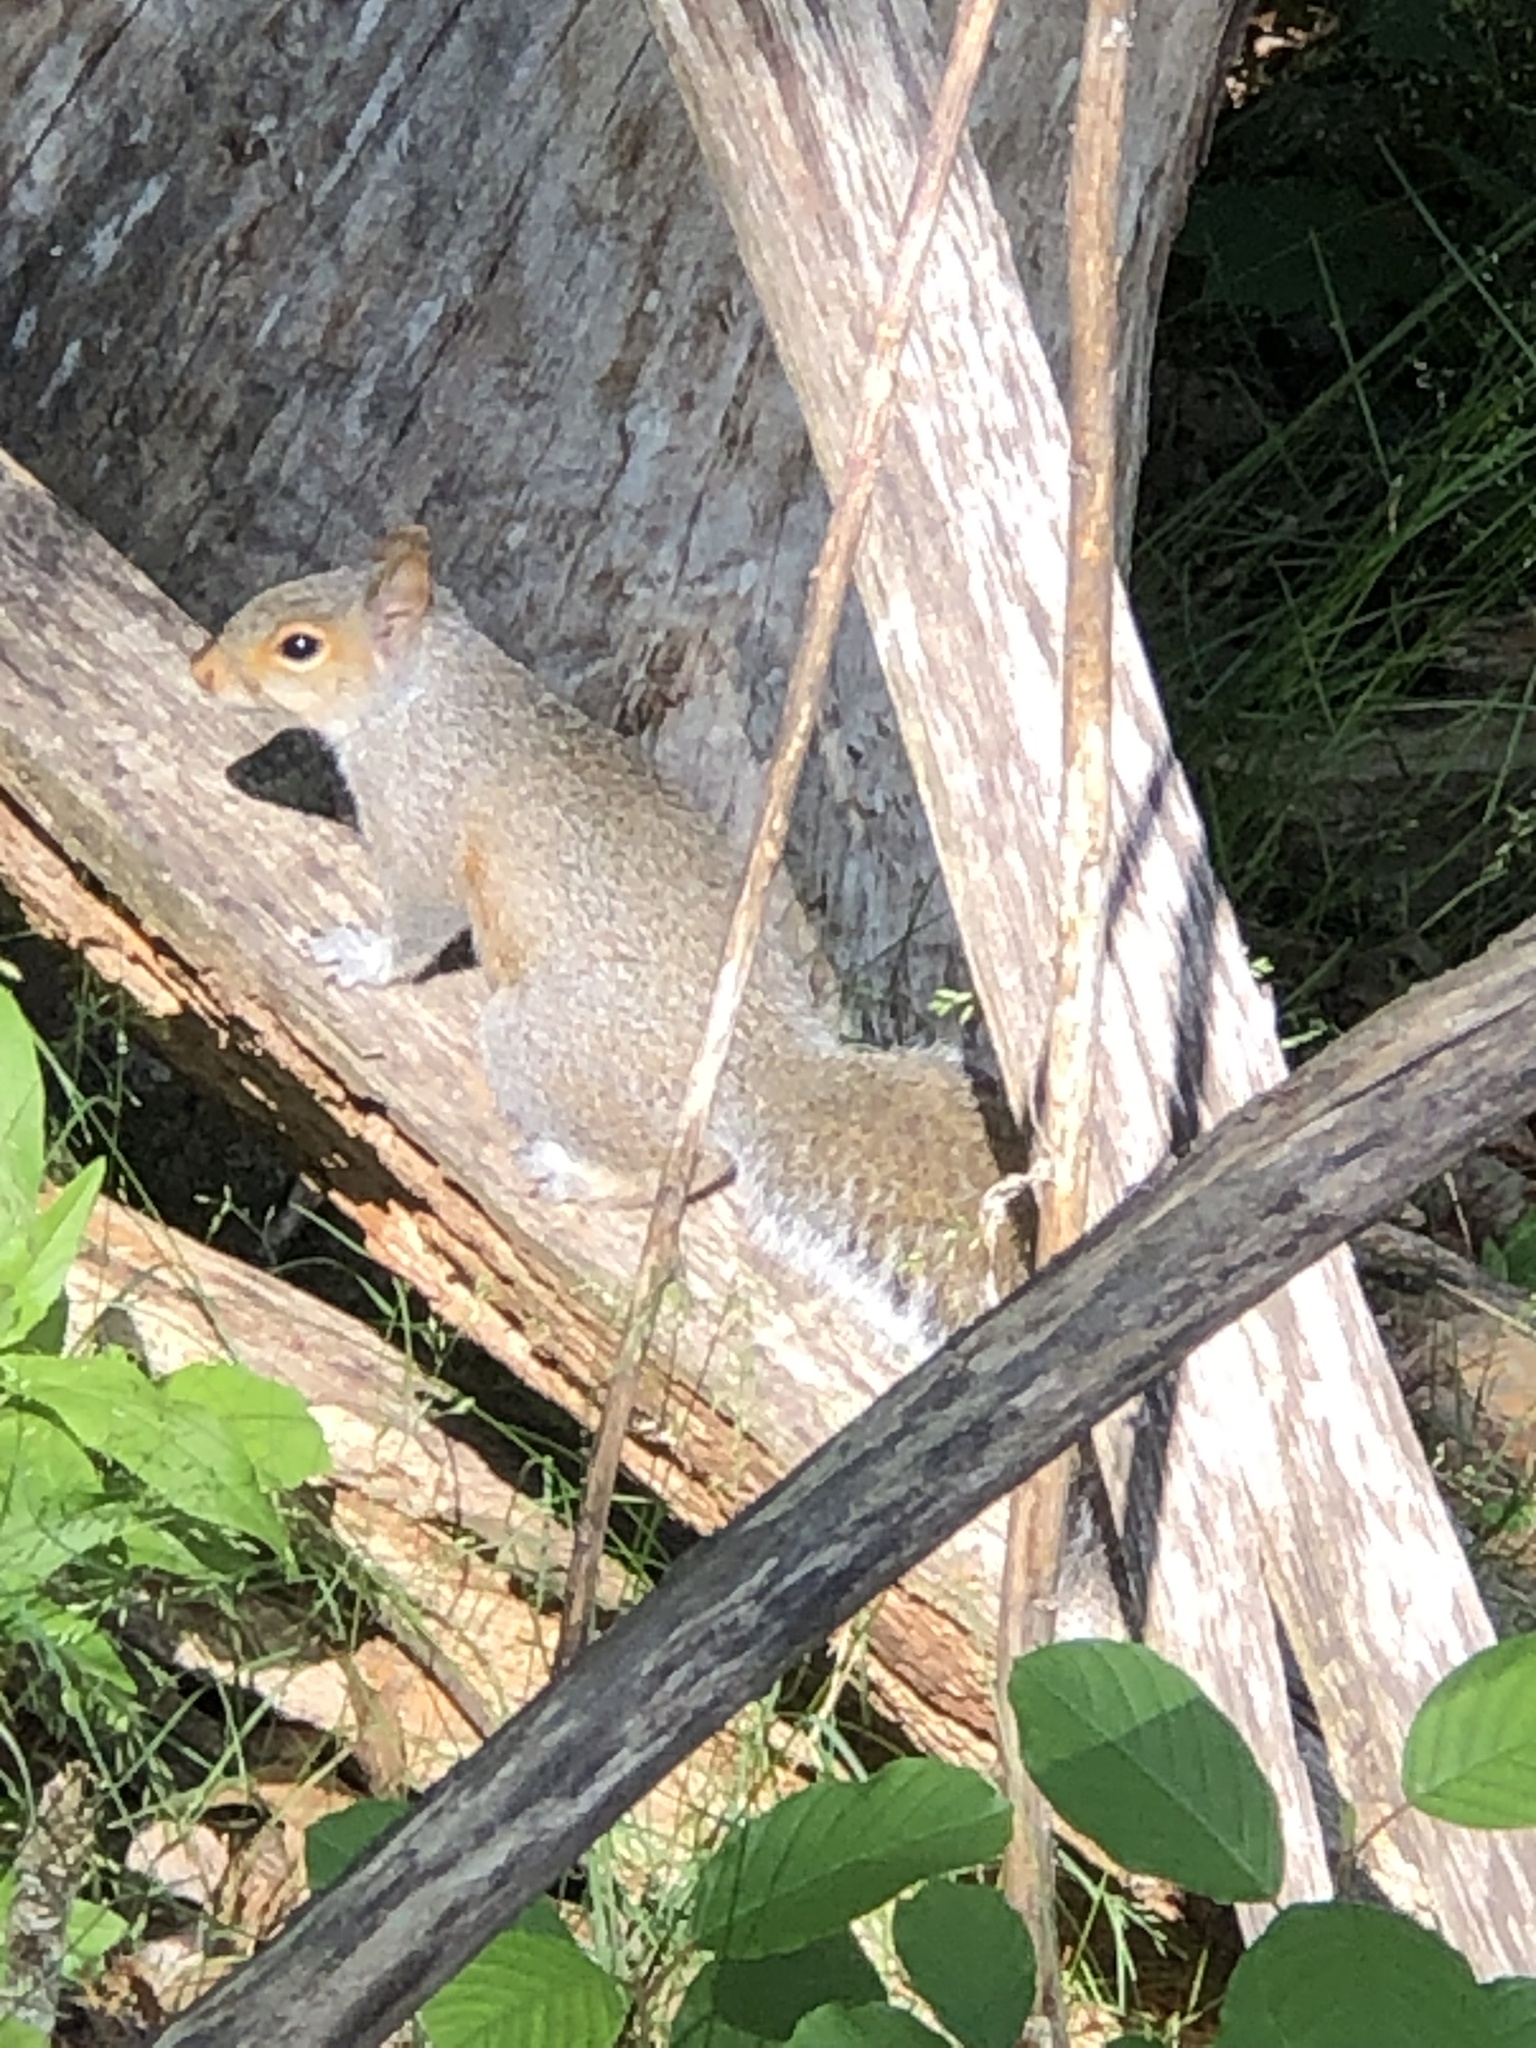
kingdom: Animalia
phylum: Chordata
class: Mammalia
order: Rodentia
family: Sciuridae
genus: Sciurus
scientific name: Sciurus carolinensis
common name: Eastern gray squirrel
